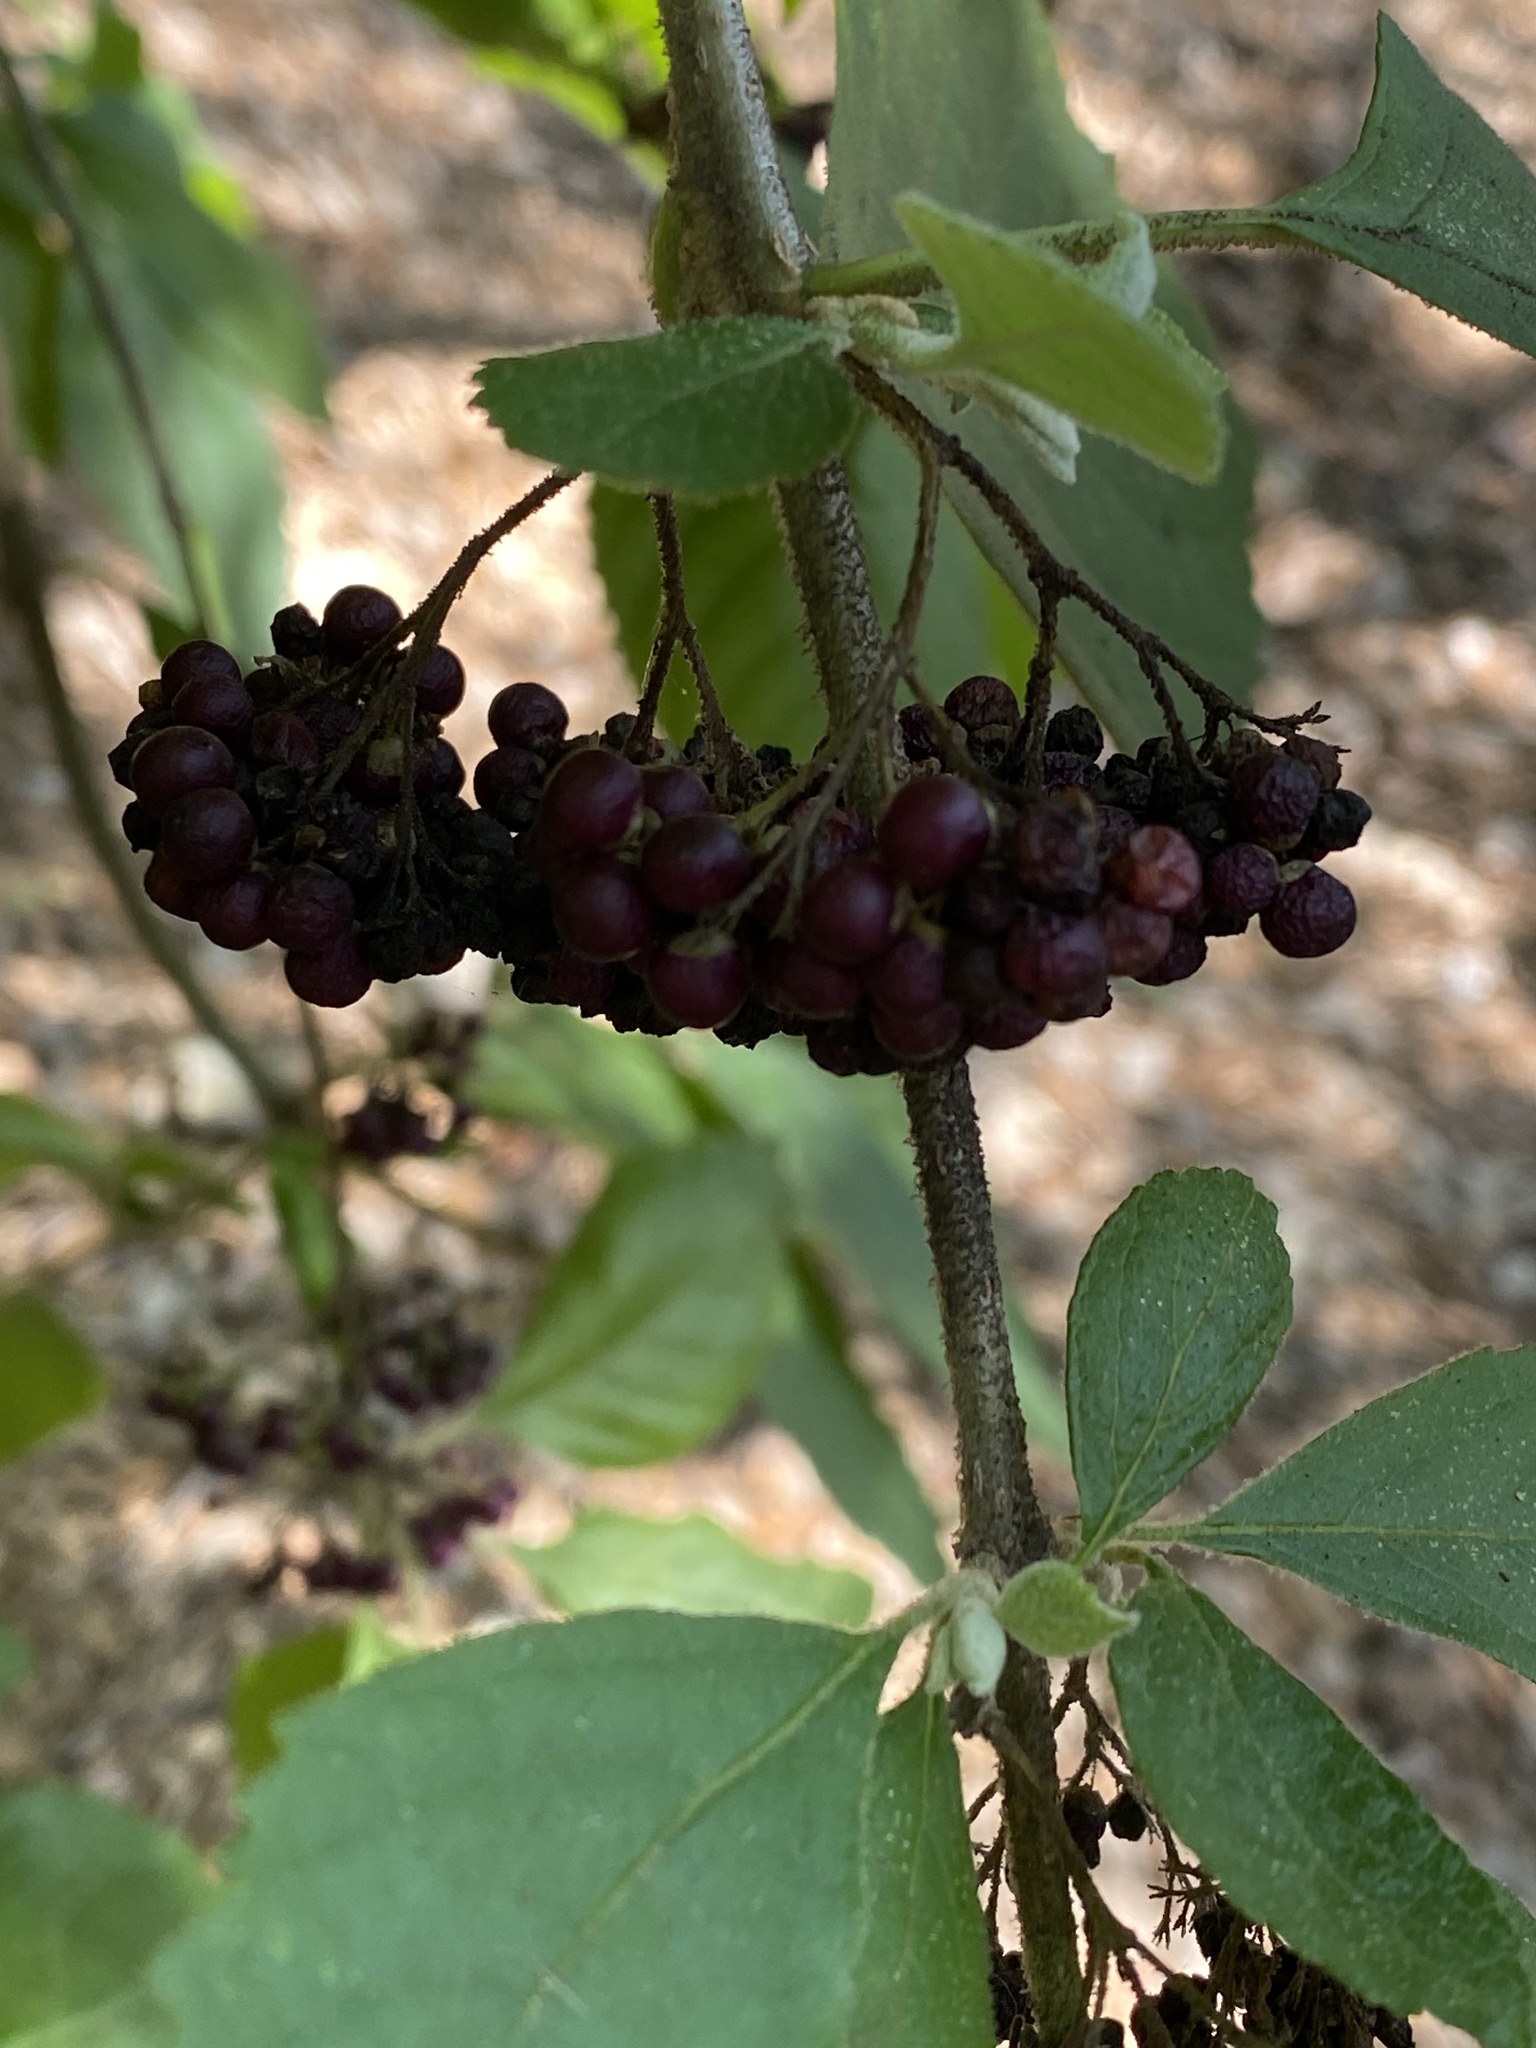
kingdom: Plantae
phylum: Tracheophyta
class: Magnoliopsida
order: Lamiales
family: Lamiaceae
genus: Callicarpa
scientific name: Callicarpa americana
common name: American beautyberry
